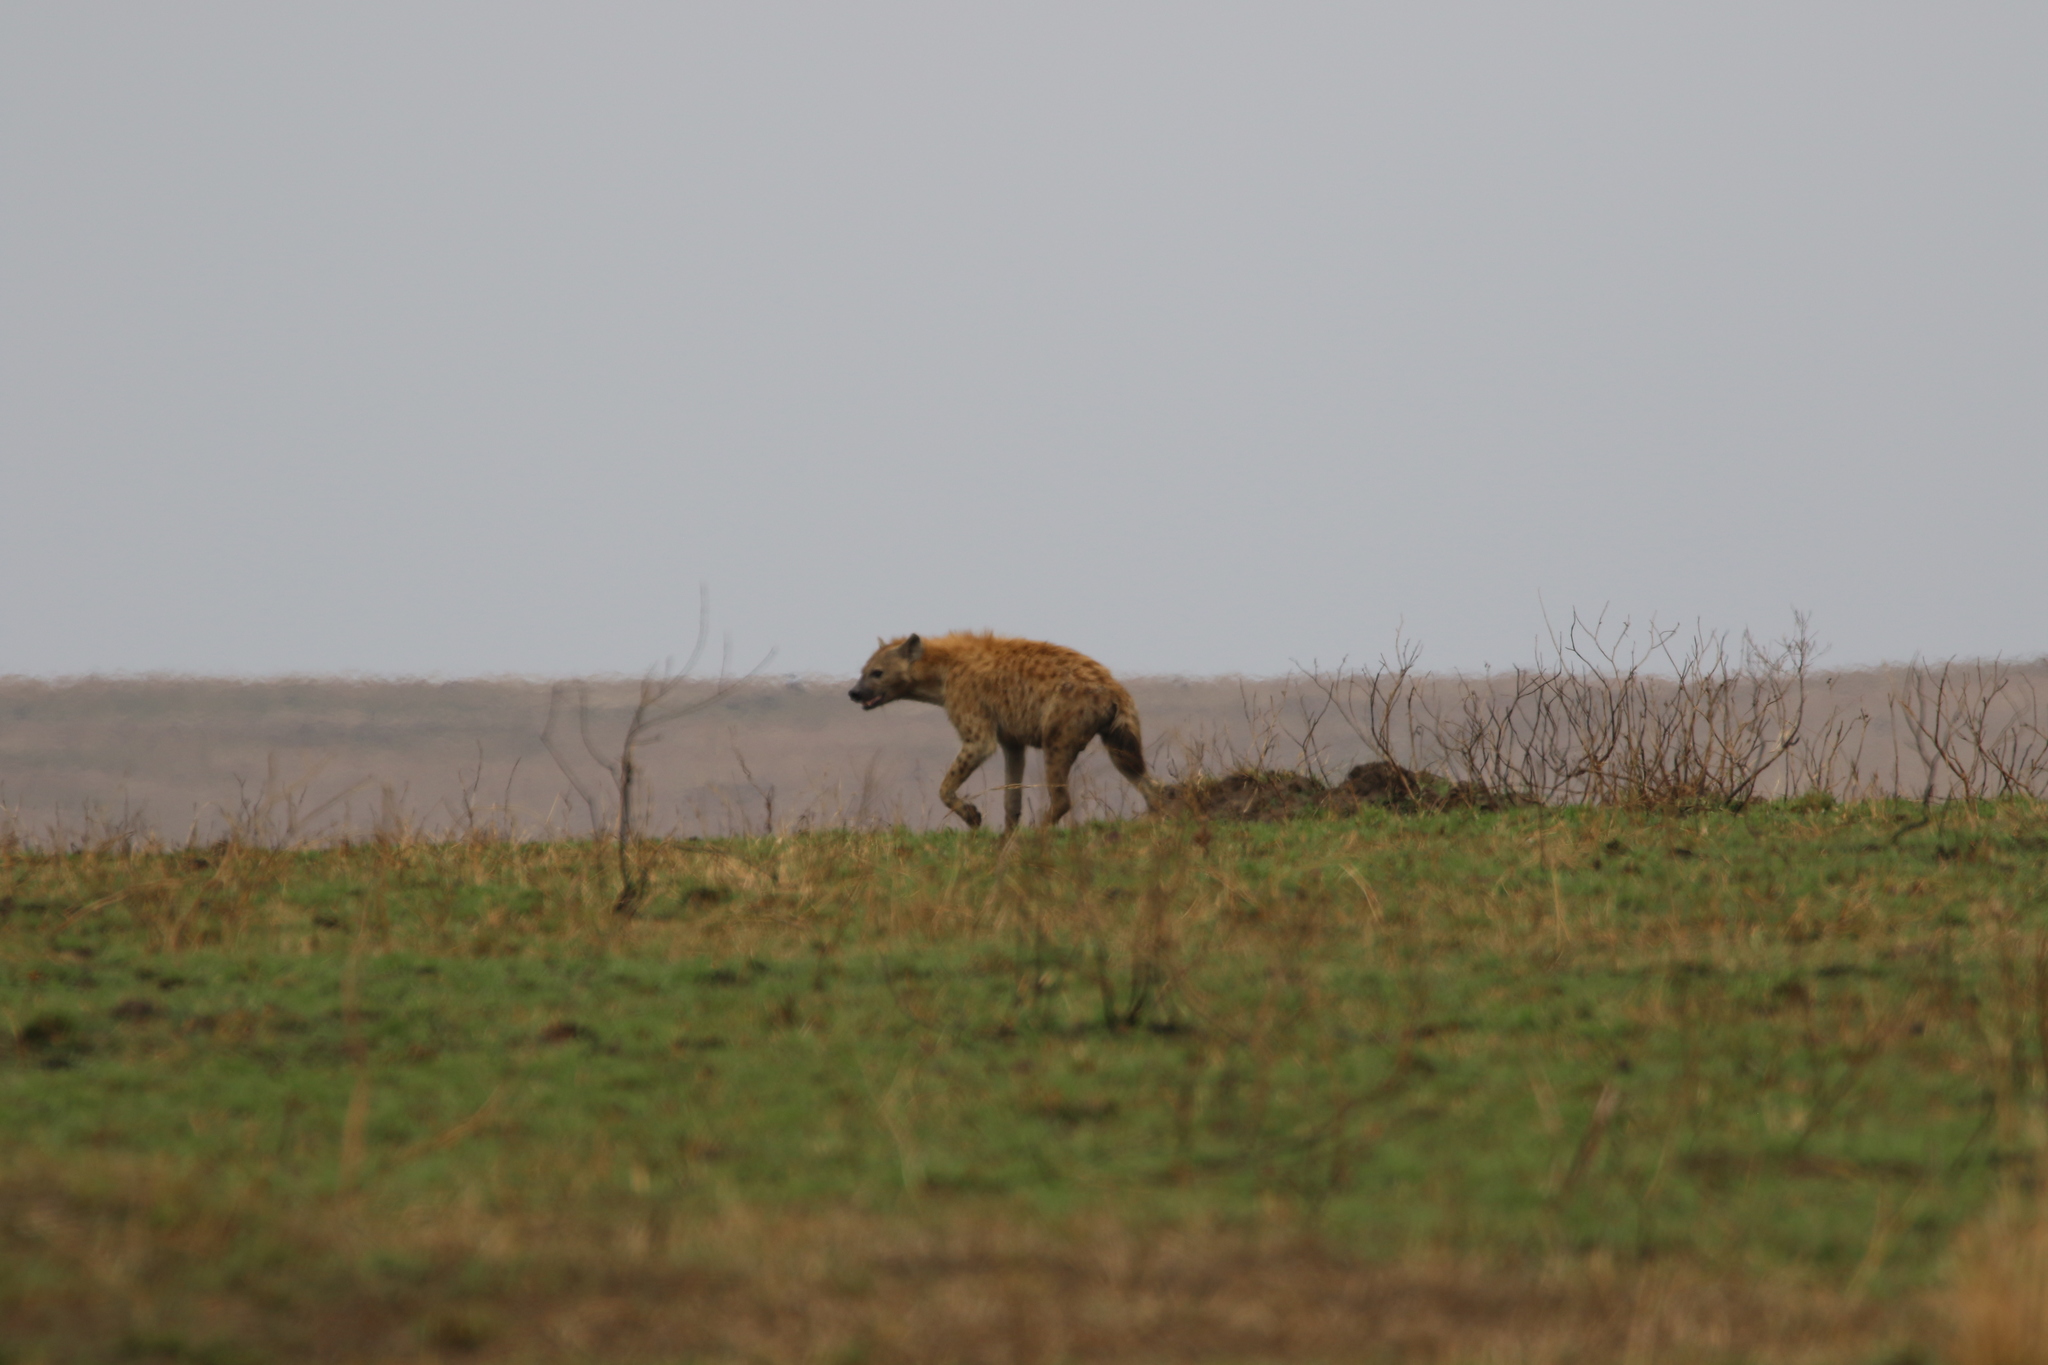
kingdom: Animalia
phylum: Chordata
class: Mammalia
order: Carnivora
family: Hyaenidae
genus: Crocuta
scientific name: Crocuta crocuta
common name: Spotted hyaena
